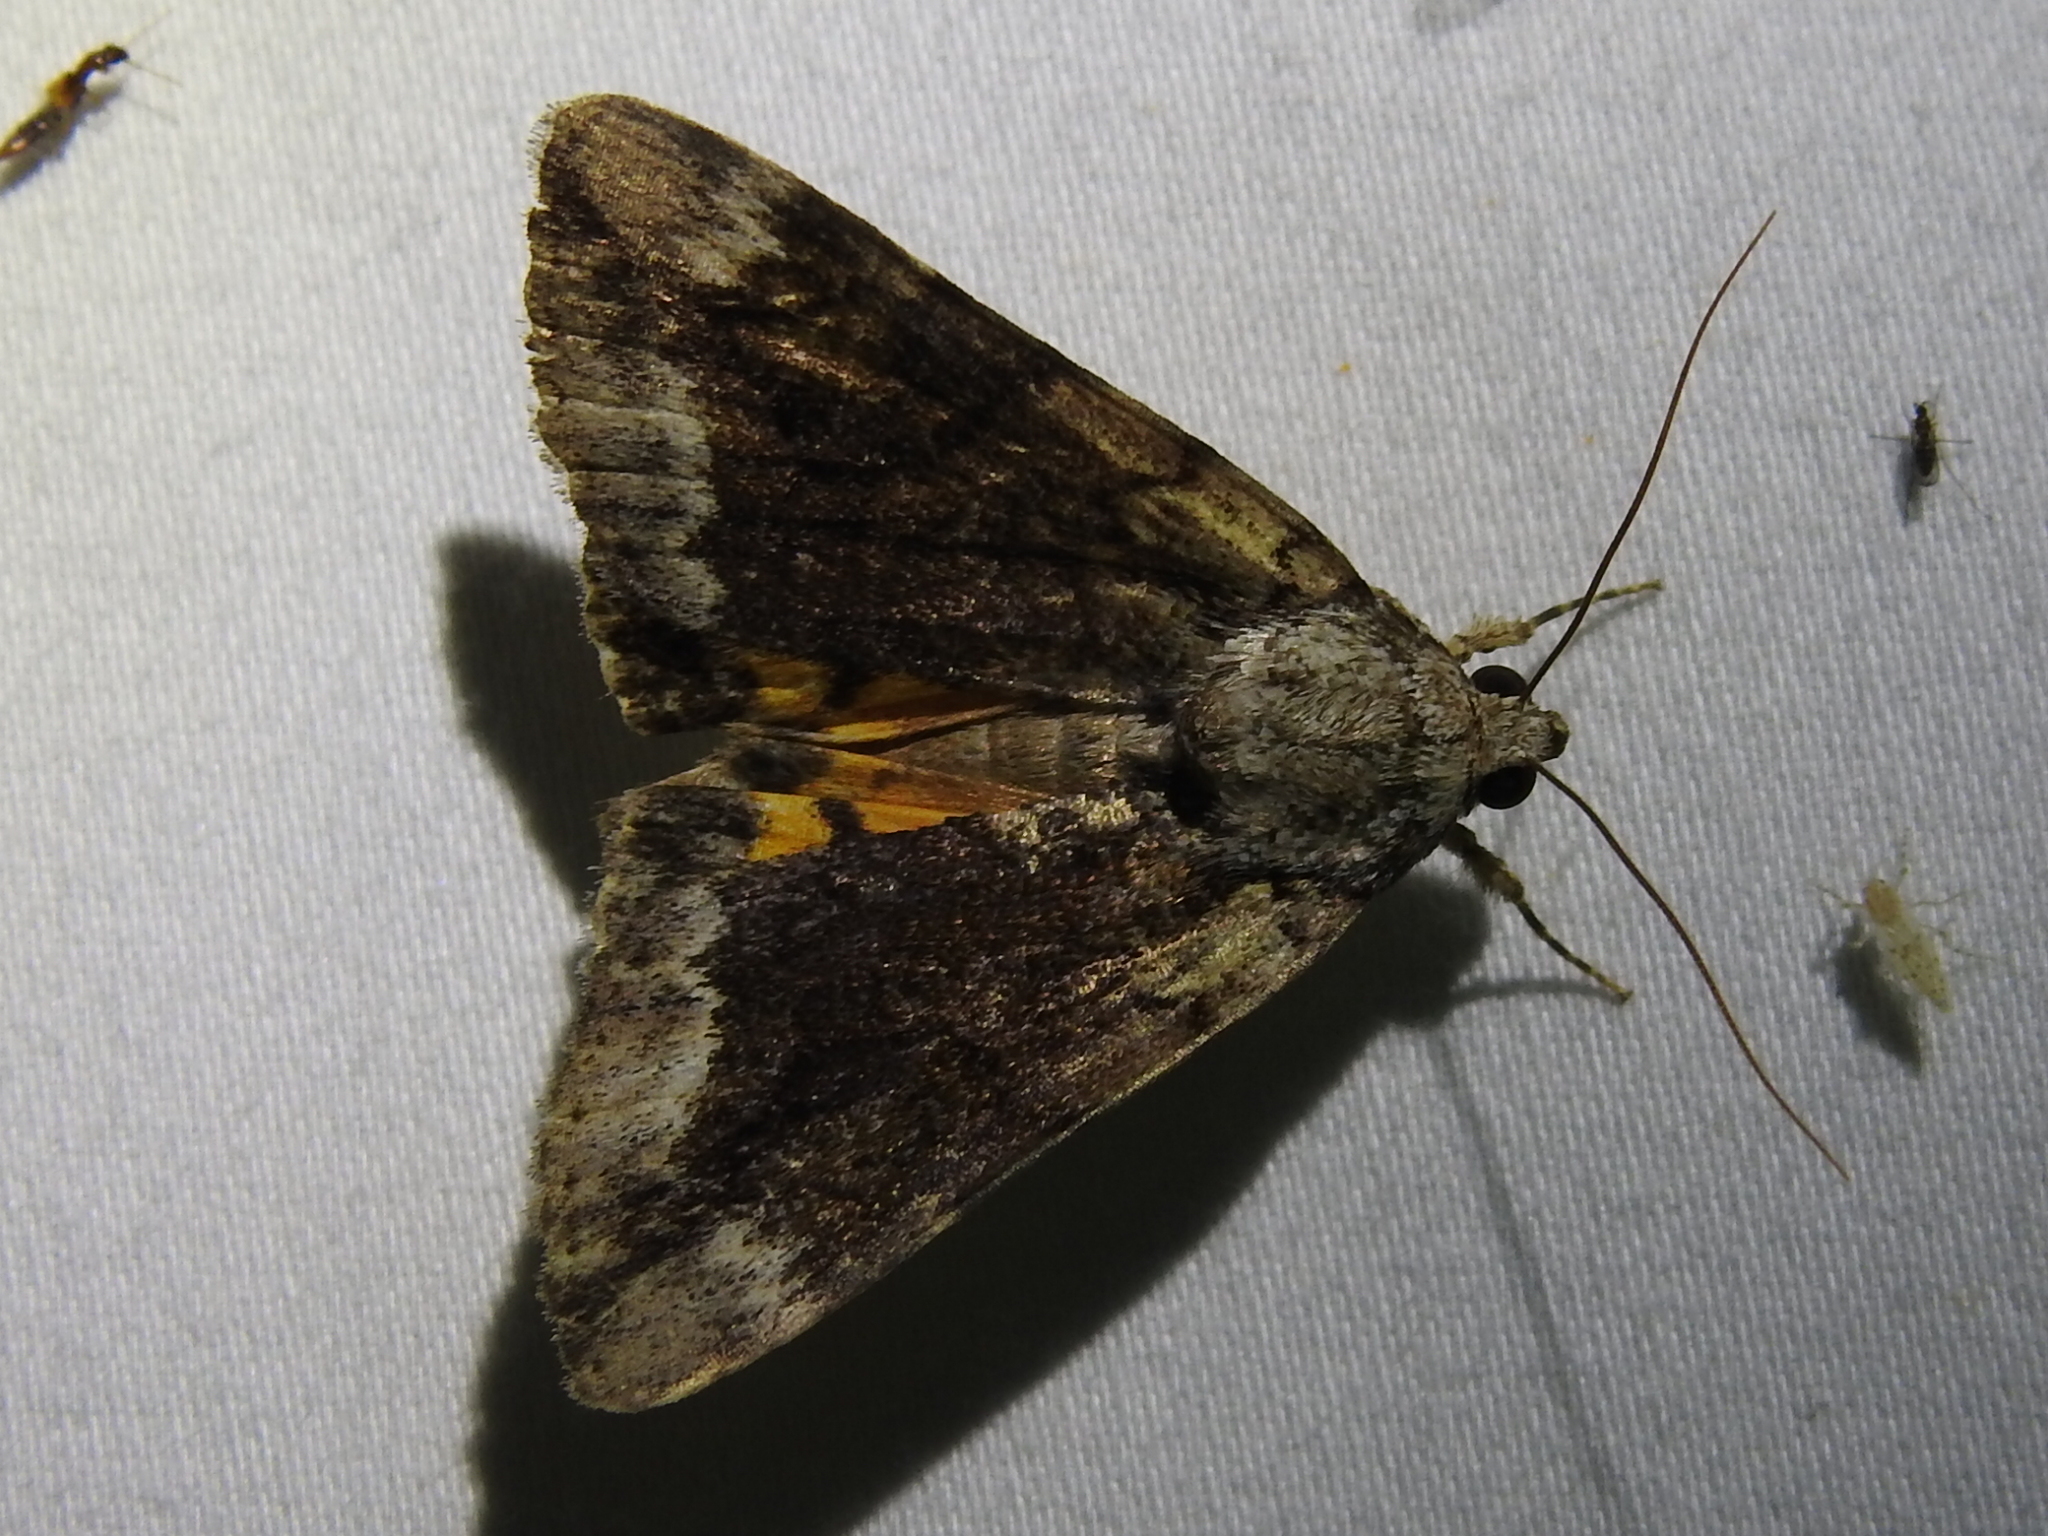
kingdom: Animalia
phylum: Arthropoda
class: Insecta
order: Lepidoptera
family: Erebidae
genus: Catocala
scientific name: Catocala micronympha
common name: Little nymph underwing
